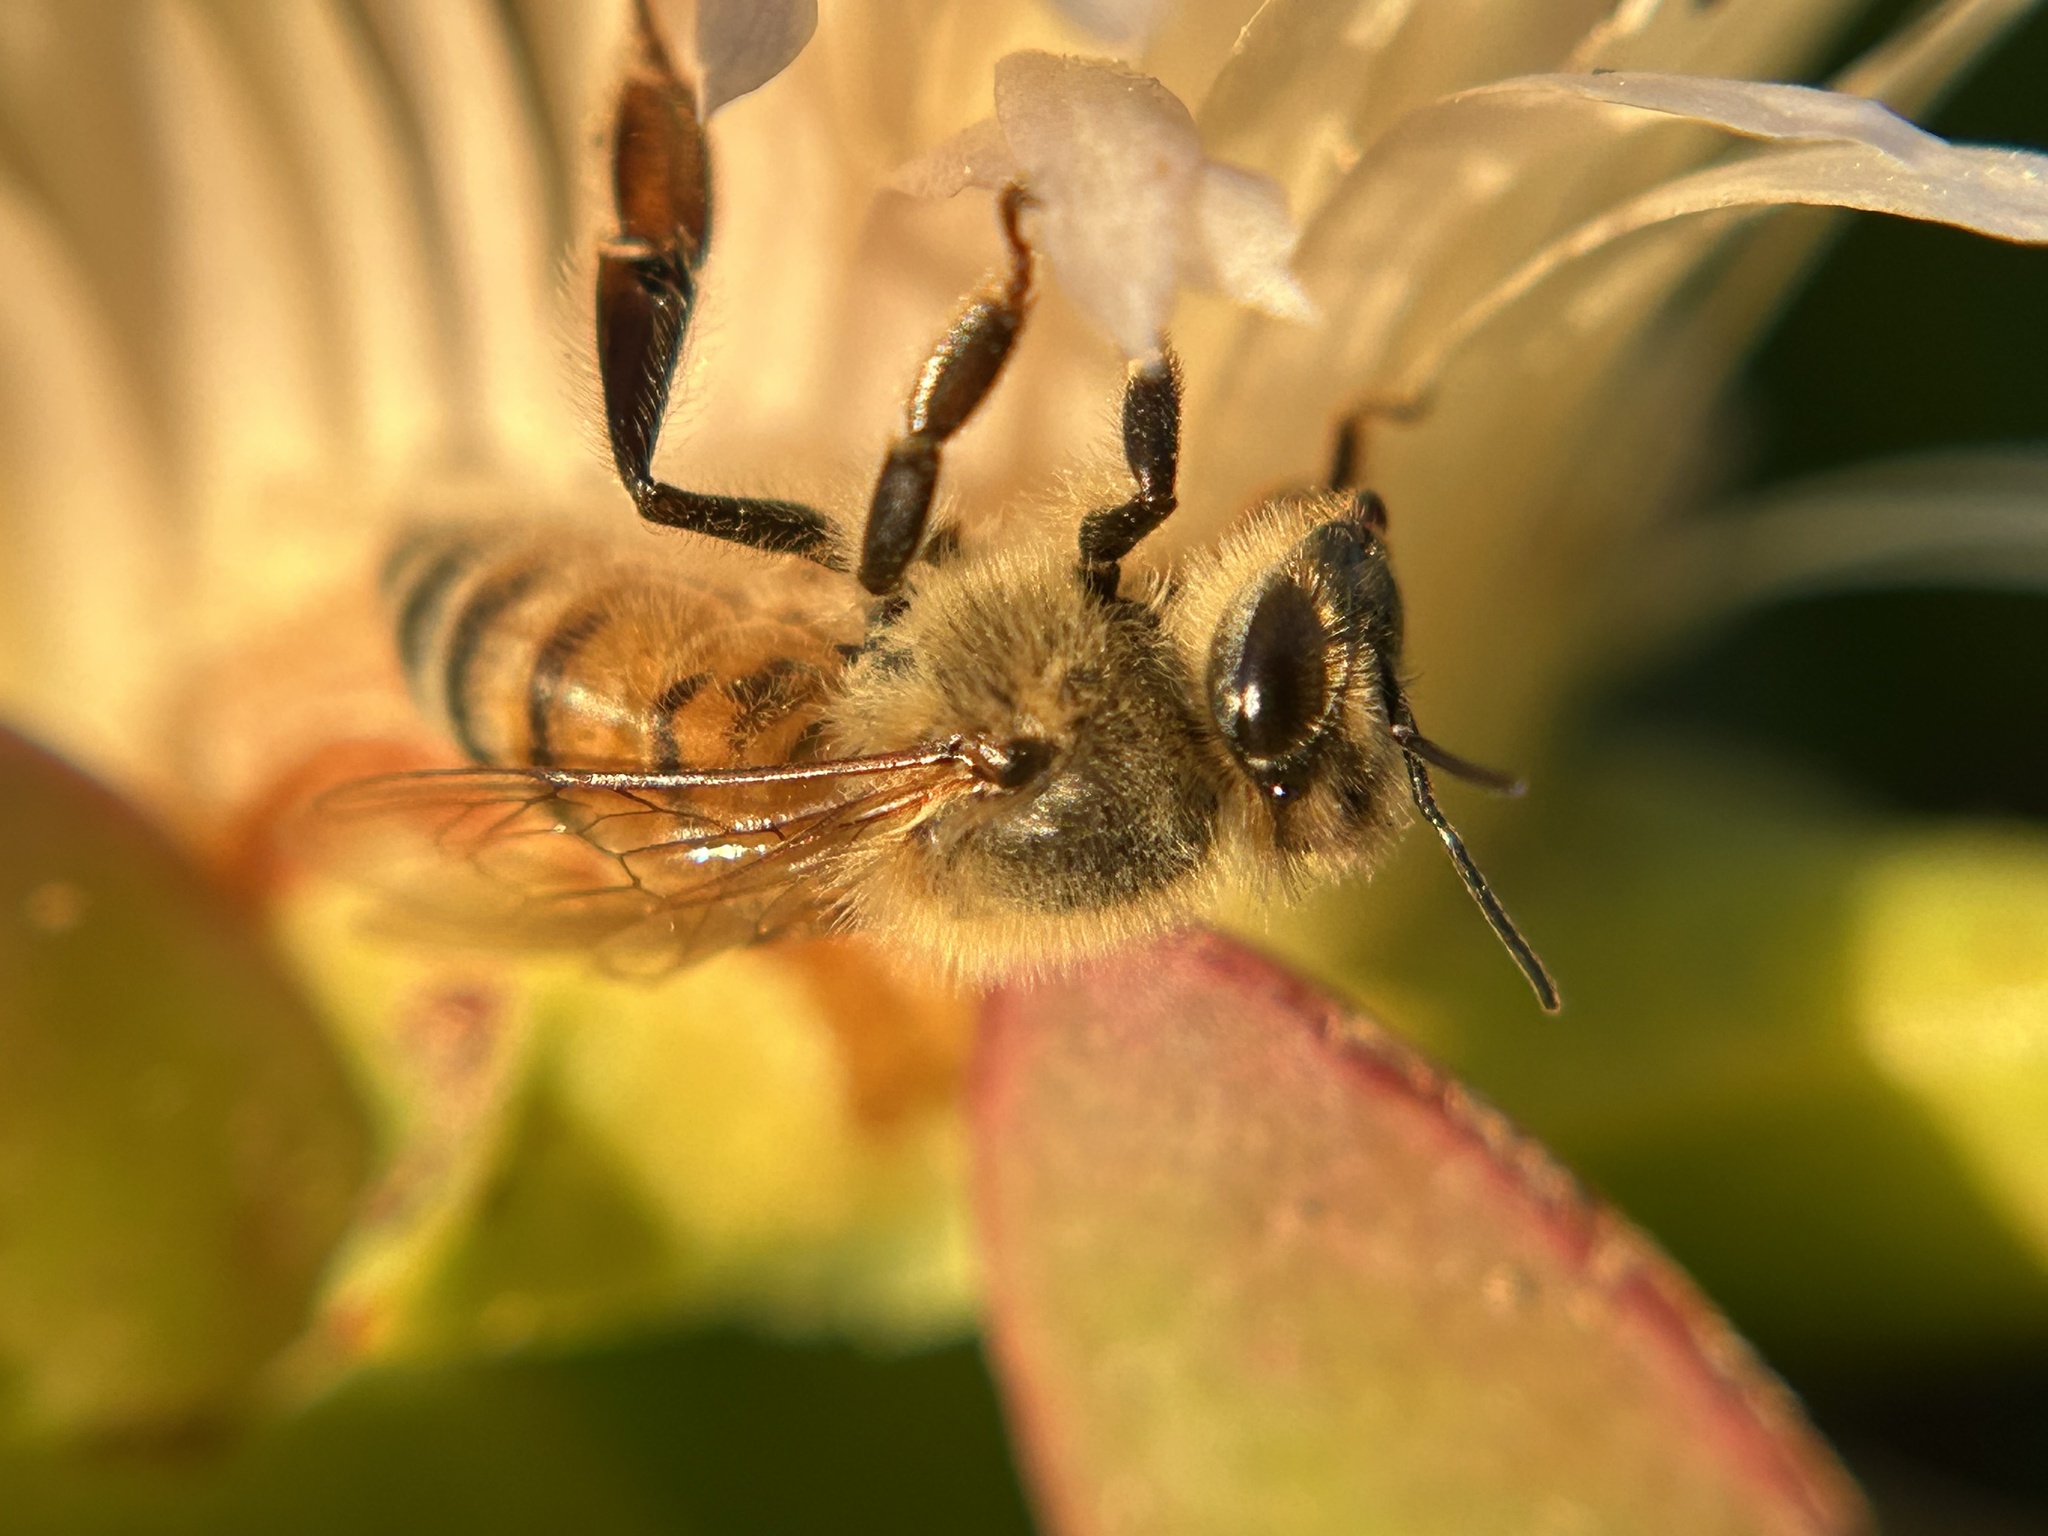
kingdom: Animalia
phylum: Arthropoda
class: Insecta
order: Hymenoptera
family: Apidae
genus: Apis
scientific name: Apis mellifera
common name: Honey bee
